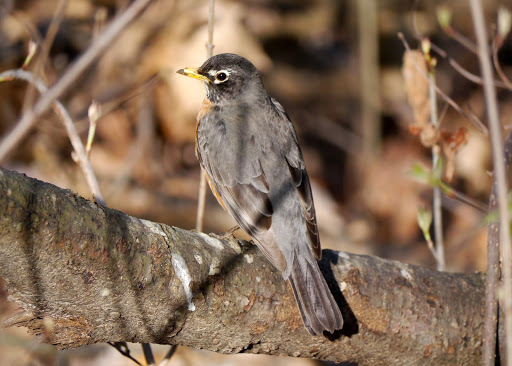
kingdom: Animalia
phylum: Chordata
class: Aves
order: Passeriformes
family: Turdidae
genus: Turdus
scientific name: Turdus migratorius
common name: American robin
